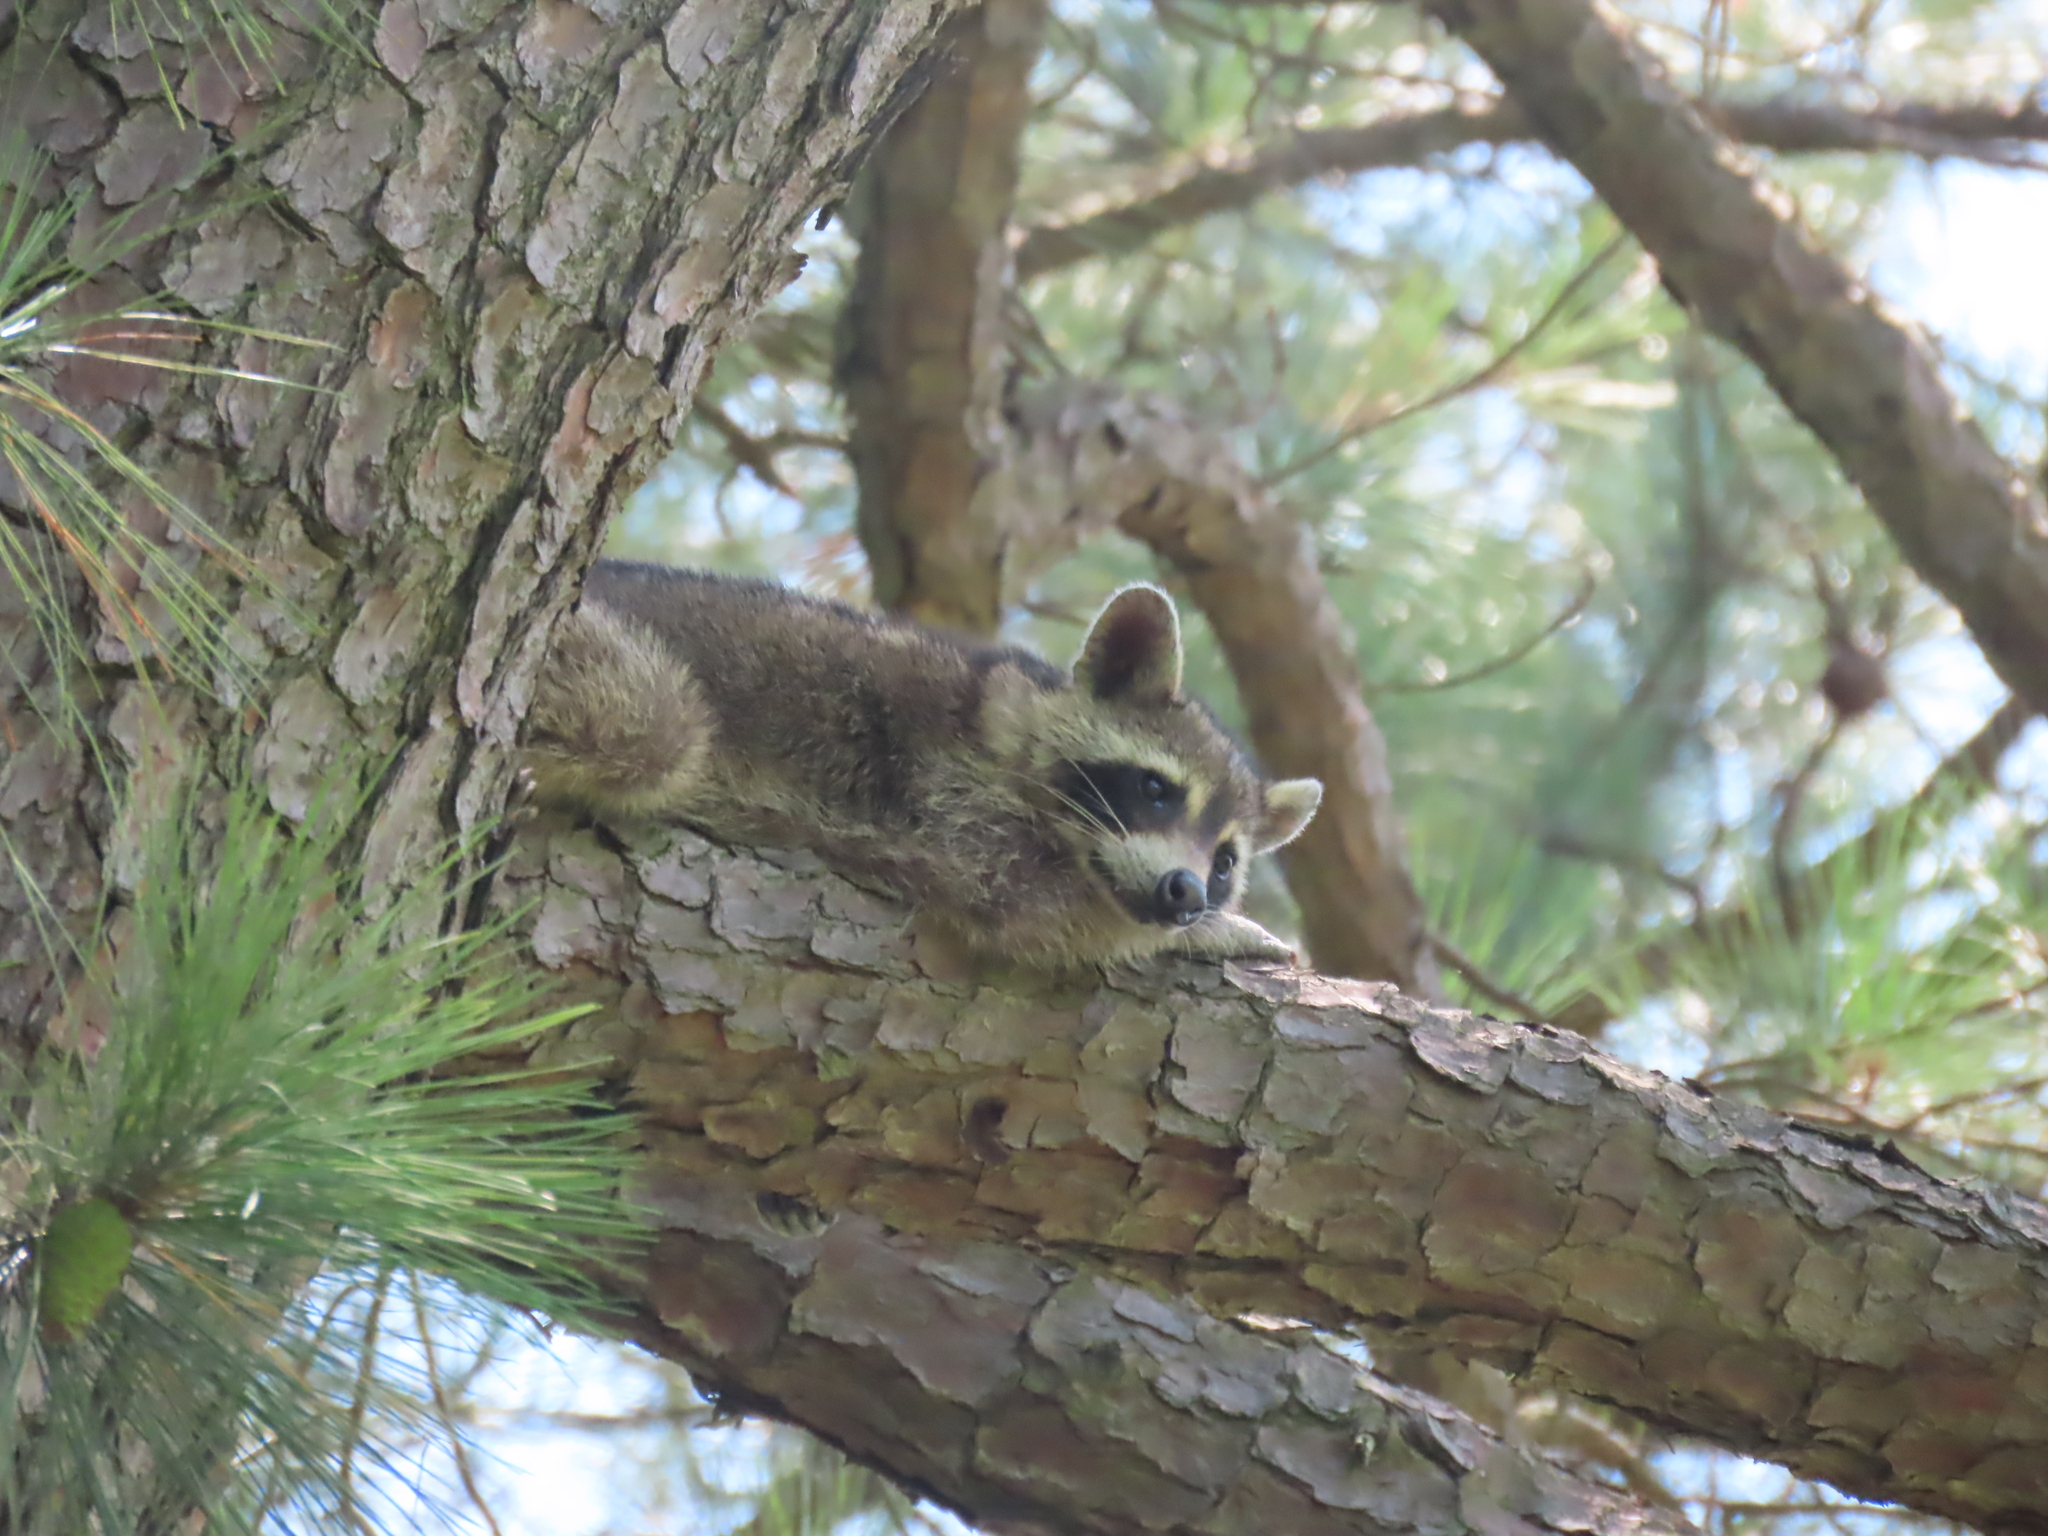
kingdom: Animalia
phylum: Chordata
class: Mammalia
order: Carnivora
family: Procyonidae
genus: Procyon
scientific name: Procyon lotor
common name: Raccoon
